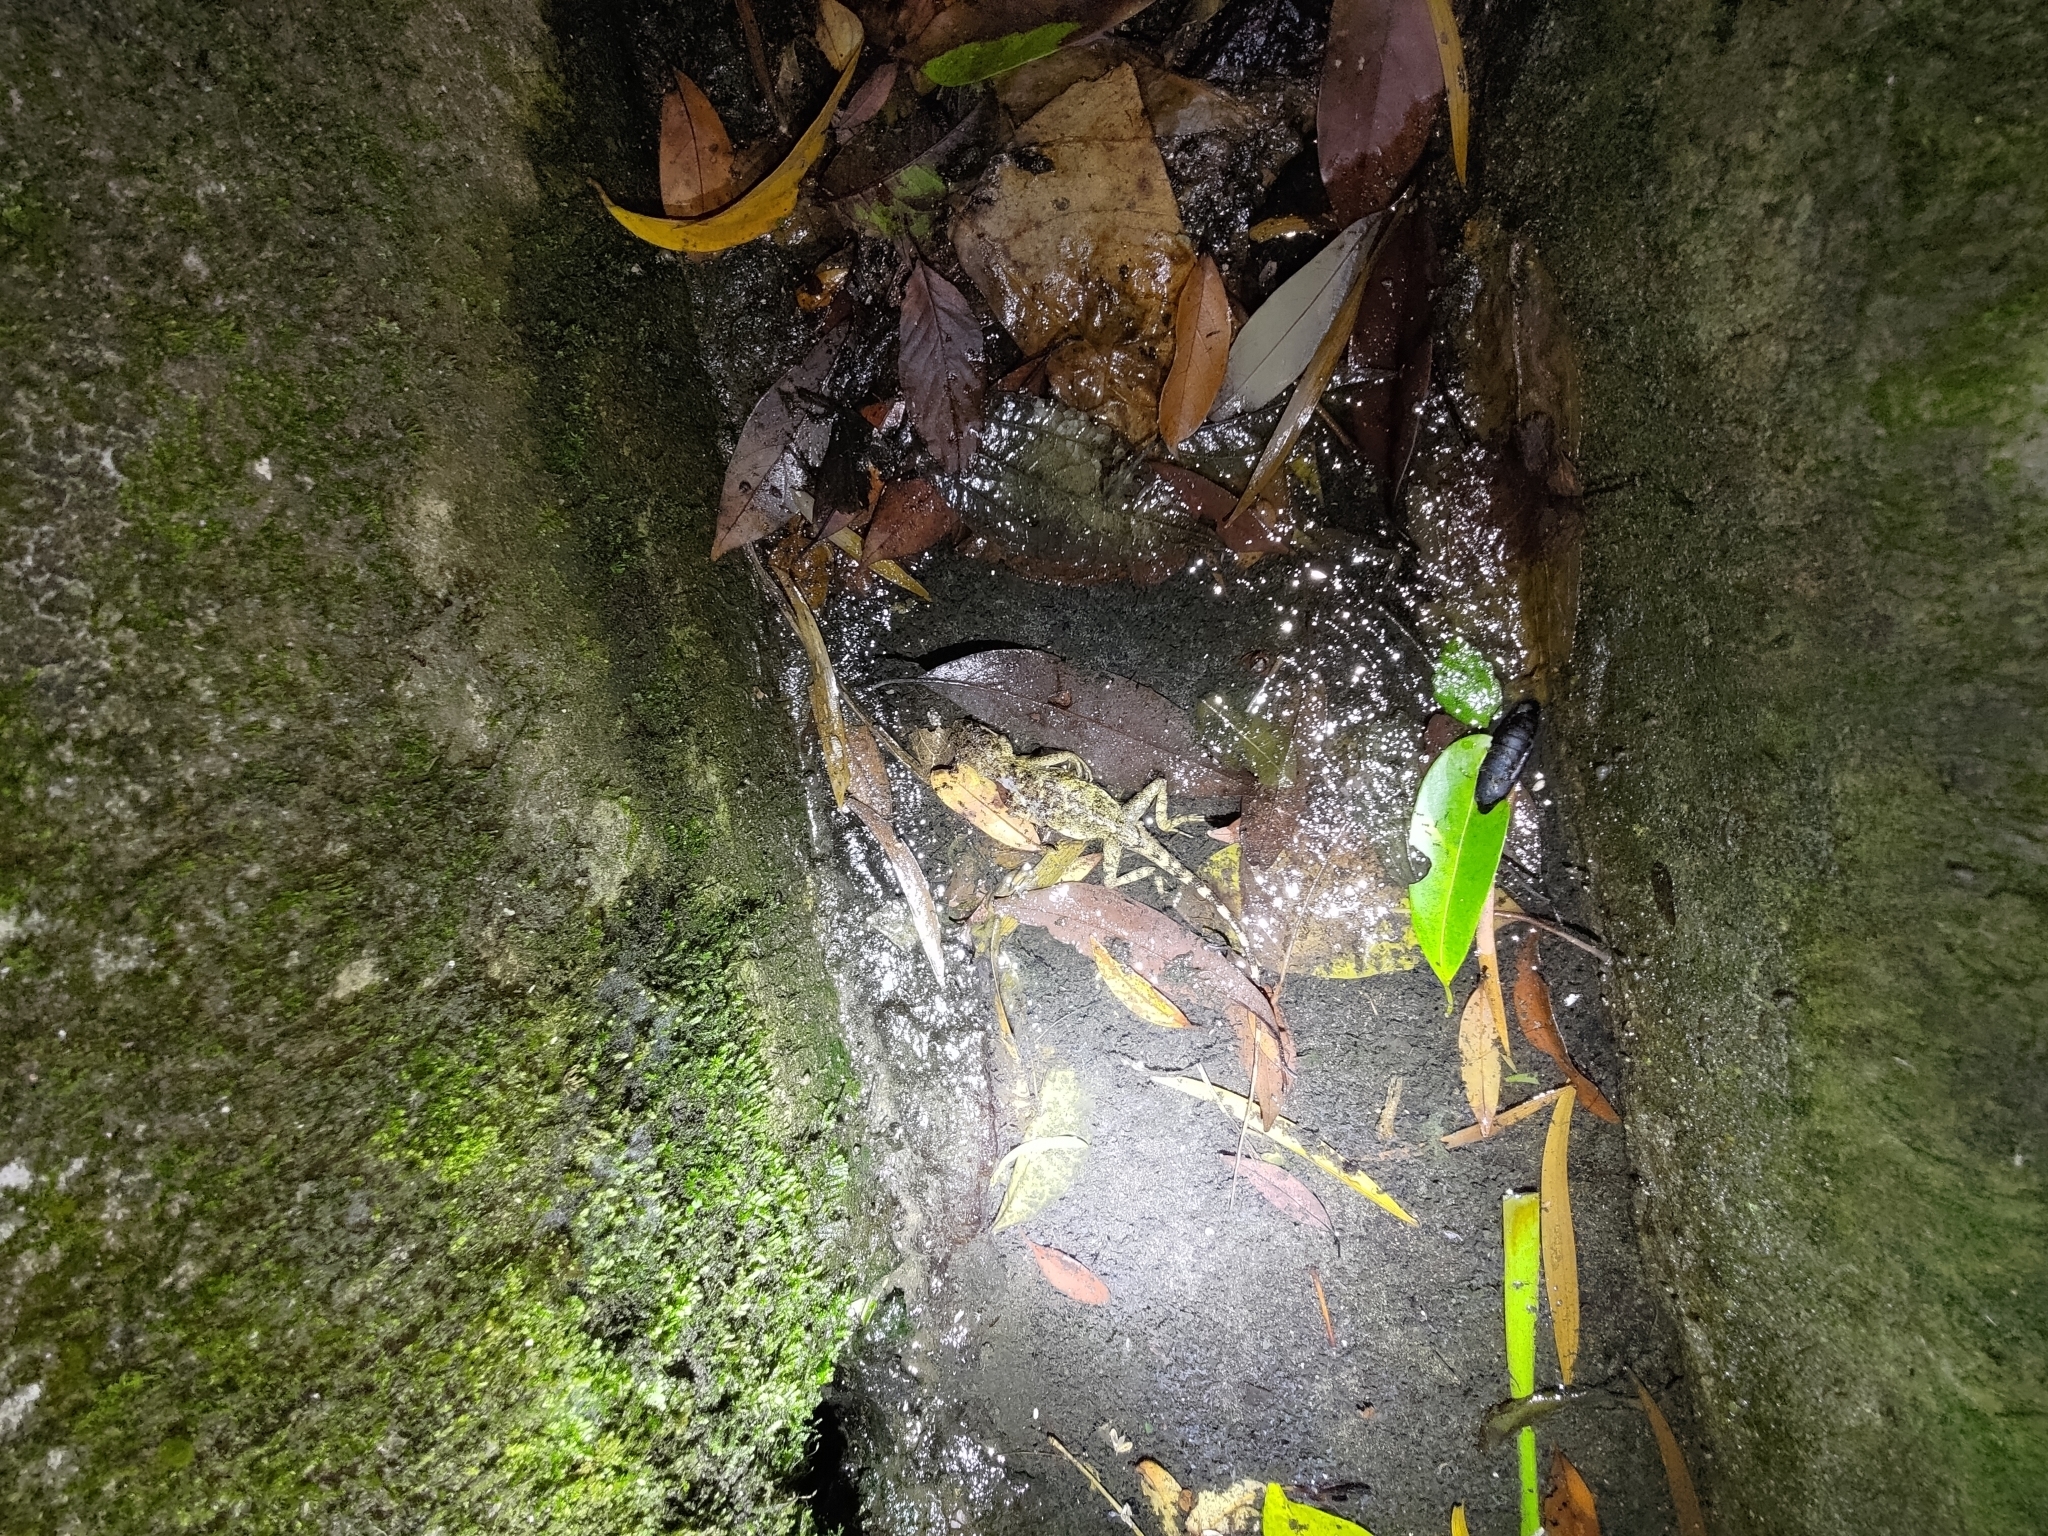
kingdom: Fungi
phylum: Basidiomycota
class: Agaricomycetes
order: Boletales
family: Diplocystidiaceae
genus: Diploderma
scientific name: Diploderma polygonatum
